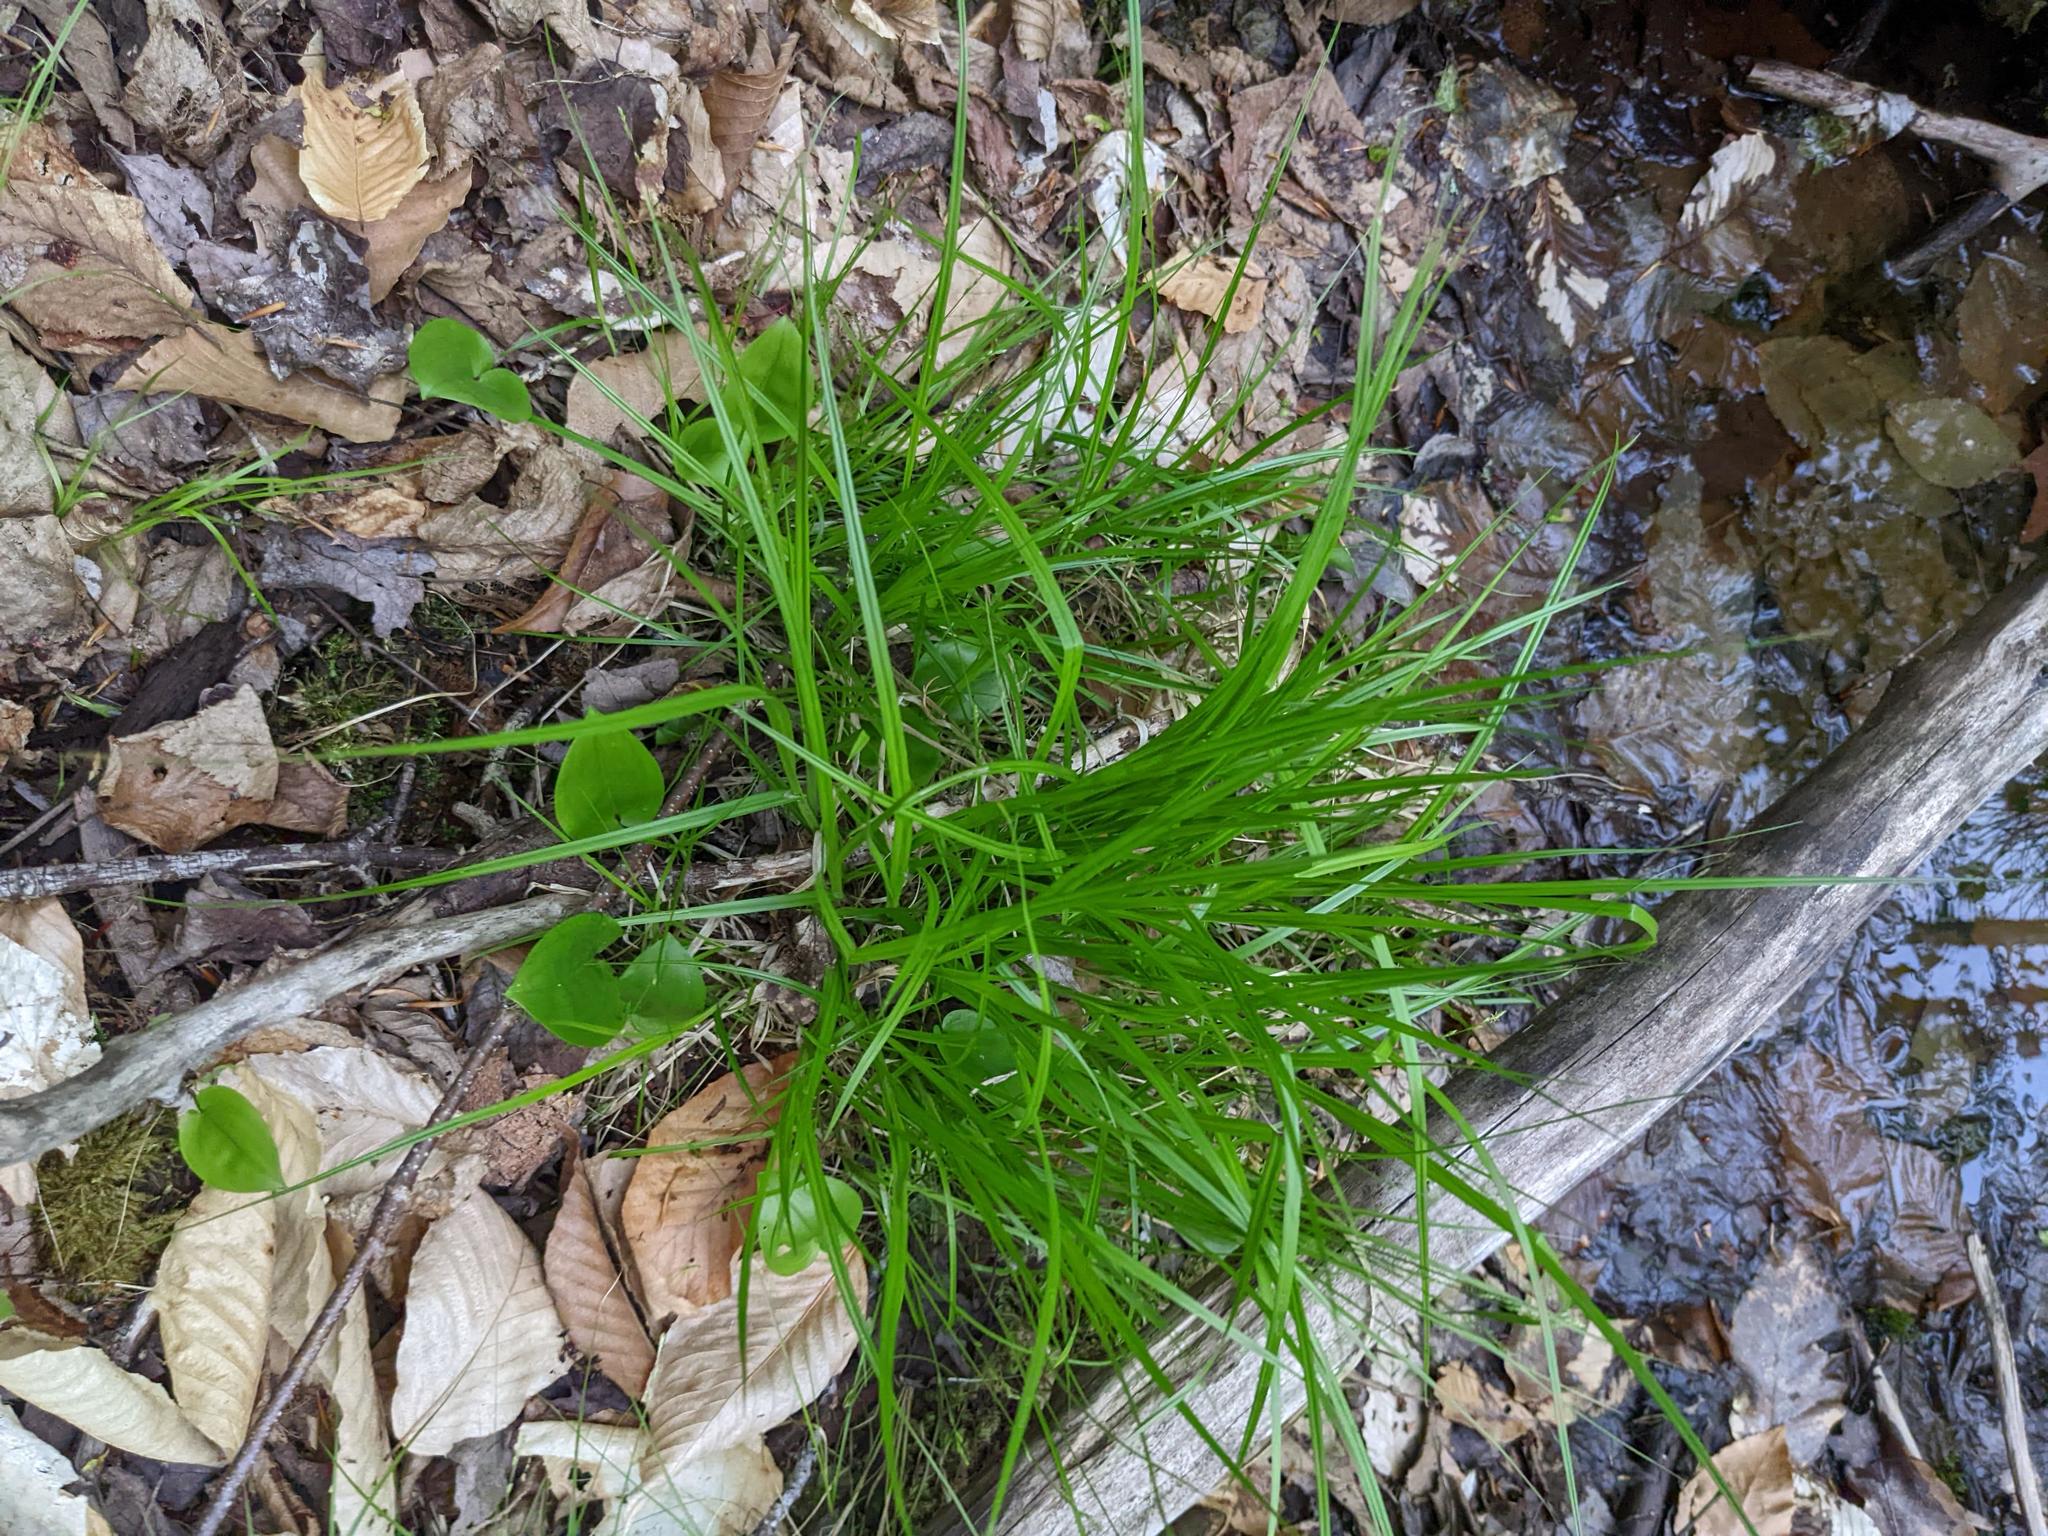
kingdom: Plantae
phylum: Tracheophyta
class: Liliopsida
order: Asparagales
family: Asparagaceae
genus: Maianthemum
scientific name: Maianthemum canadense
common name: False lily-of-the-valley
